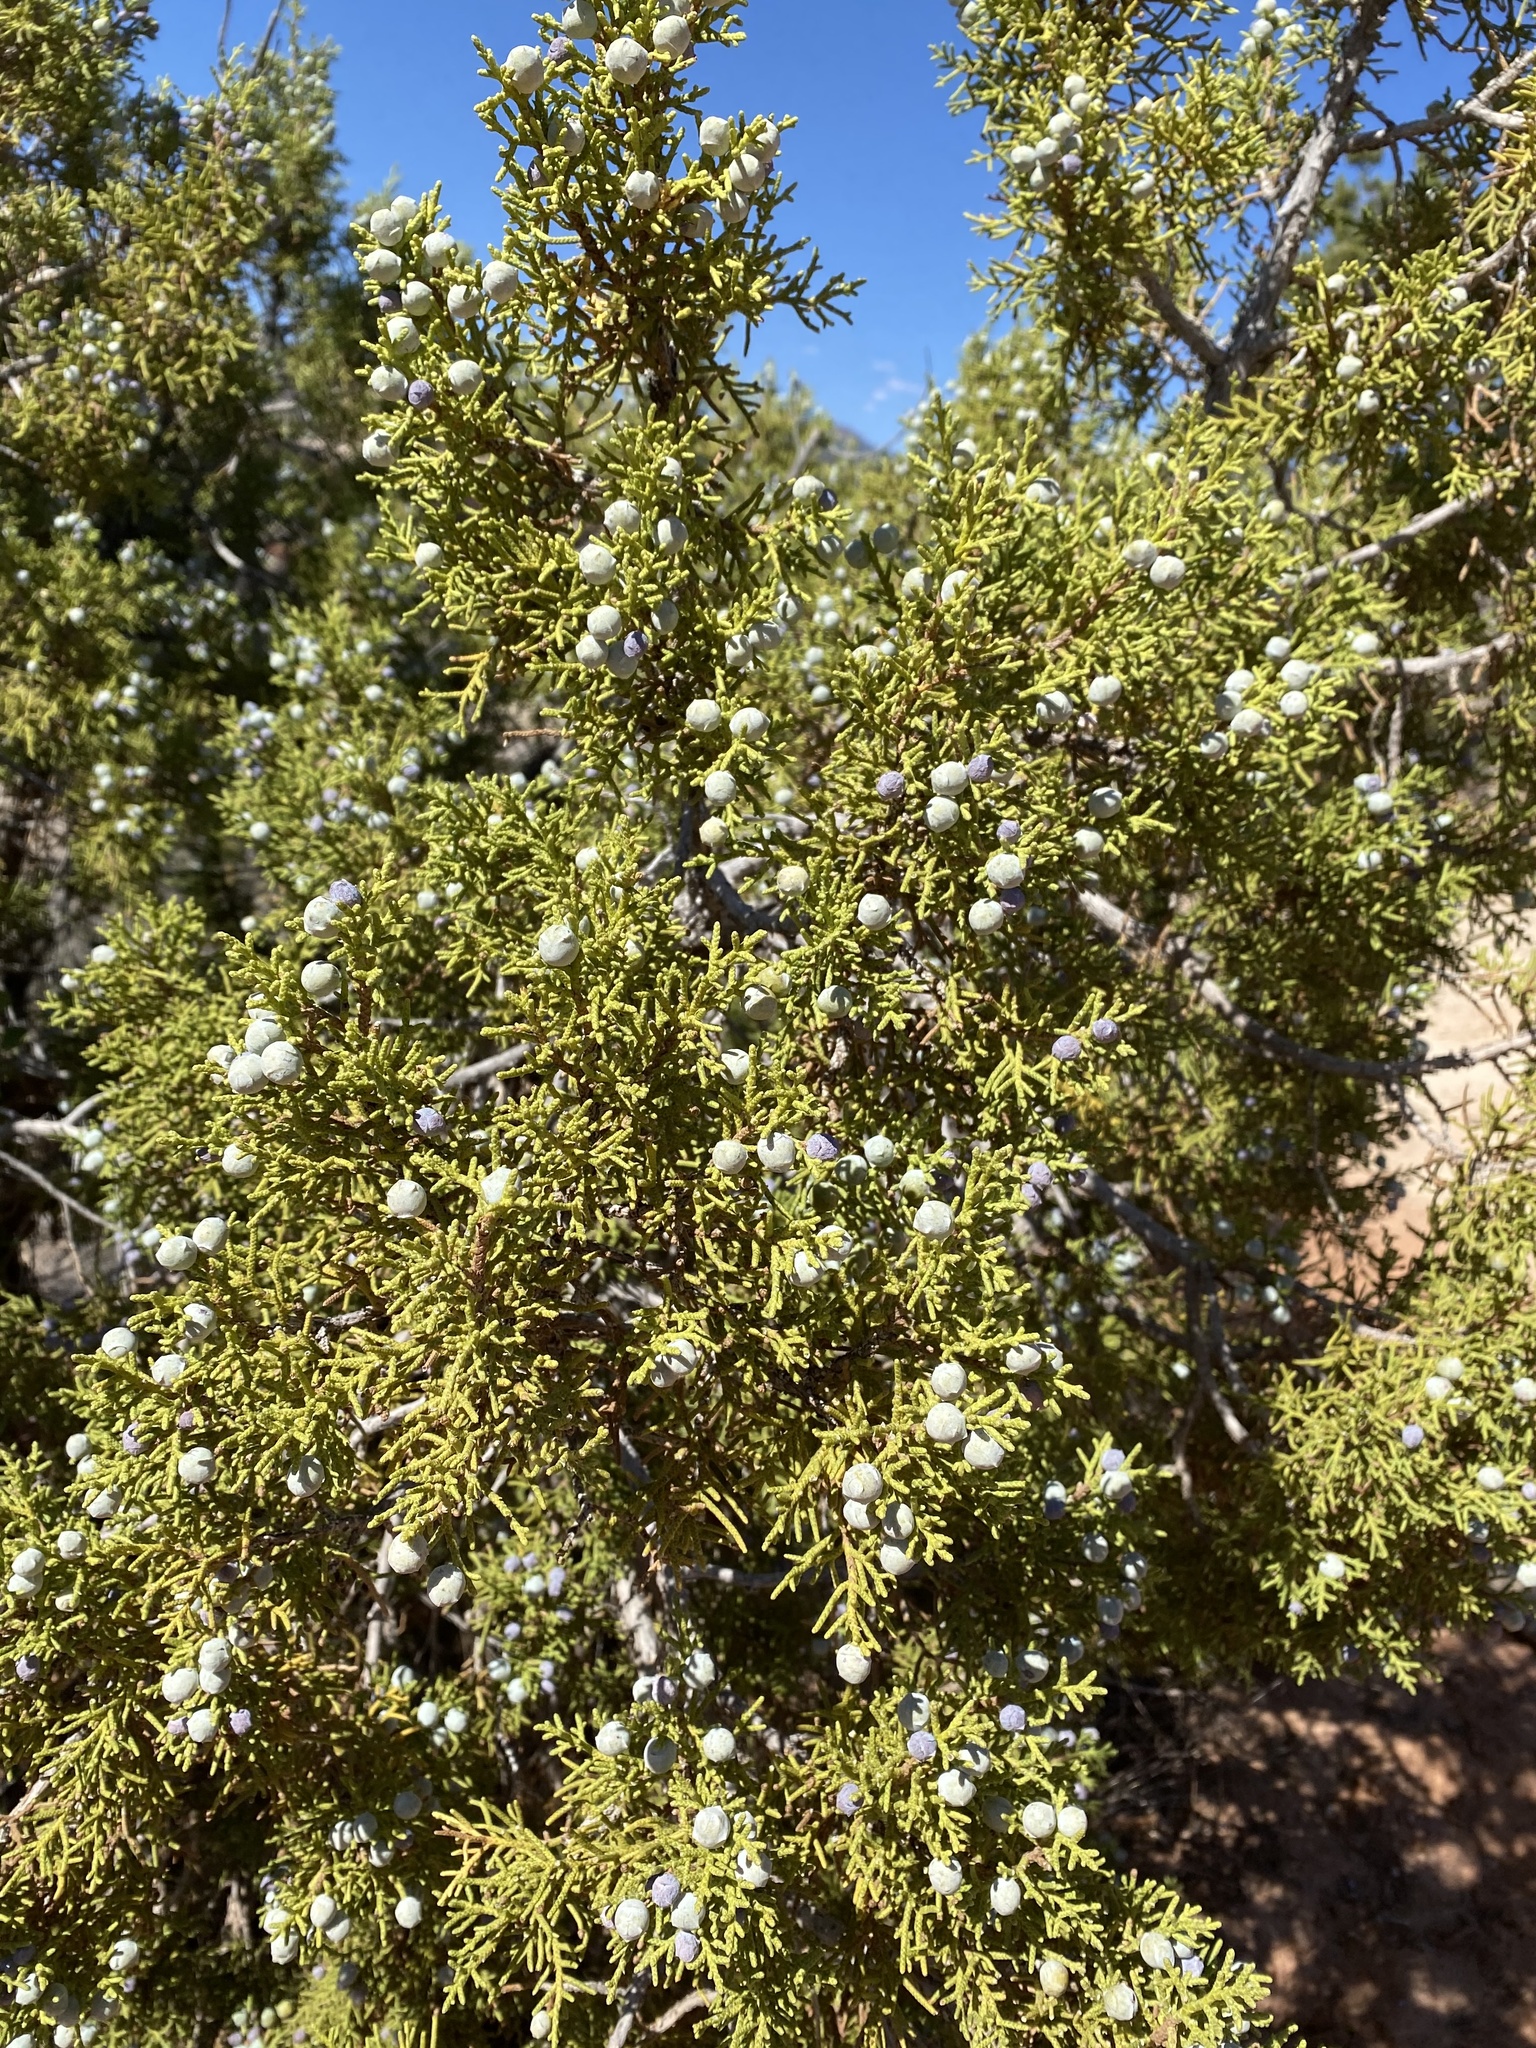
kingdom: Plantae
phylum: Tracheophyta
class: Pinopsida
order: Pinales
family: Cupressaceae
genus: Juniperus
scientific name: Juniperus osteosperma
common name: Utah juniper
